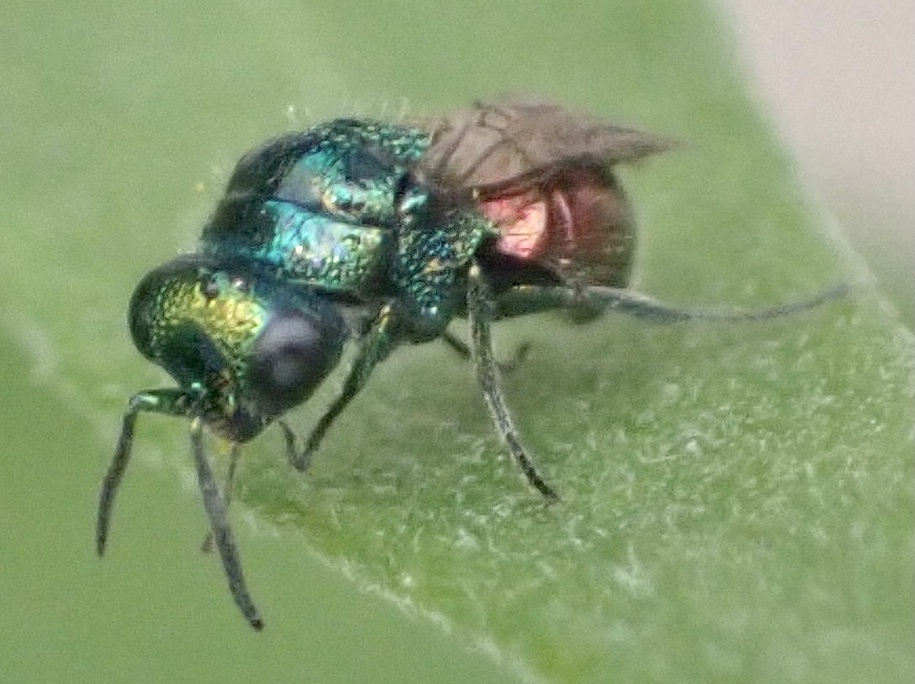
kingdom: Animalia
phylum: Arthropoda
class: Insecta
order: Hymenoptera
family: Chrysididae
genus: Pseudomalus
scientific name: Pseudomalus auratus
